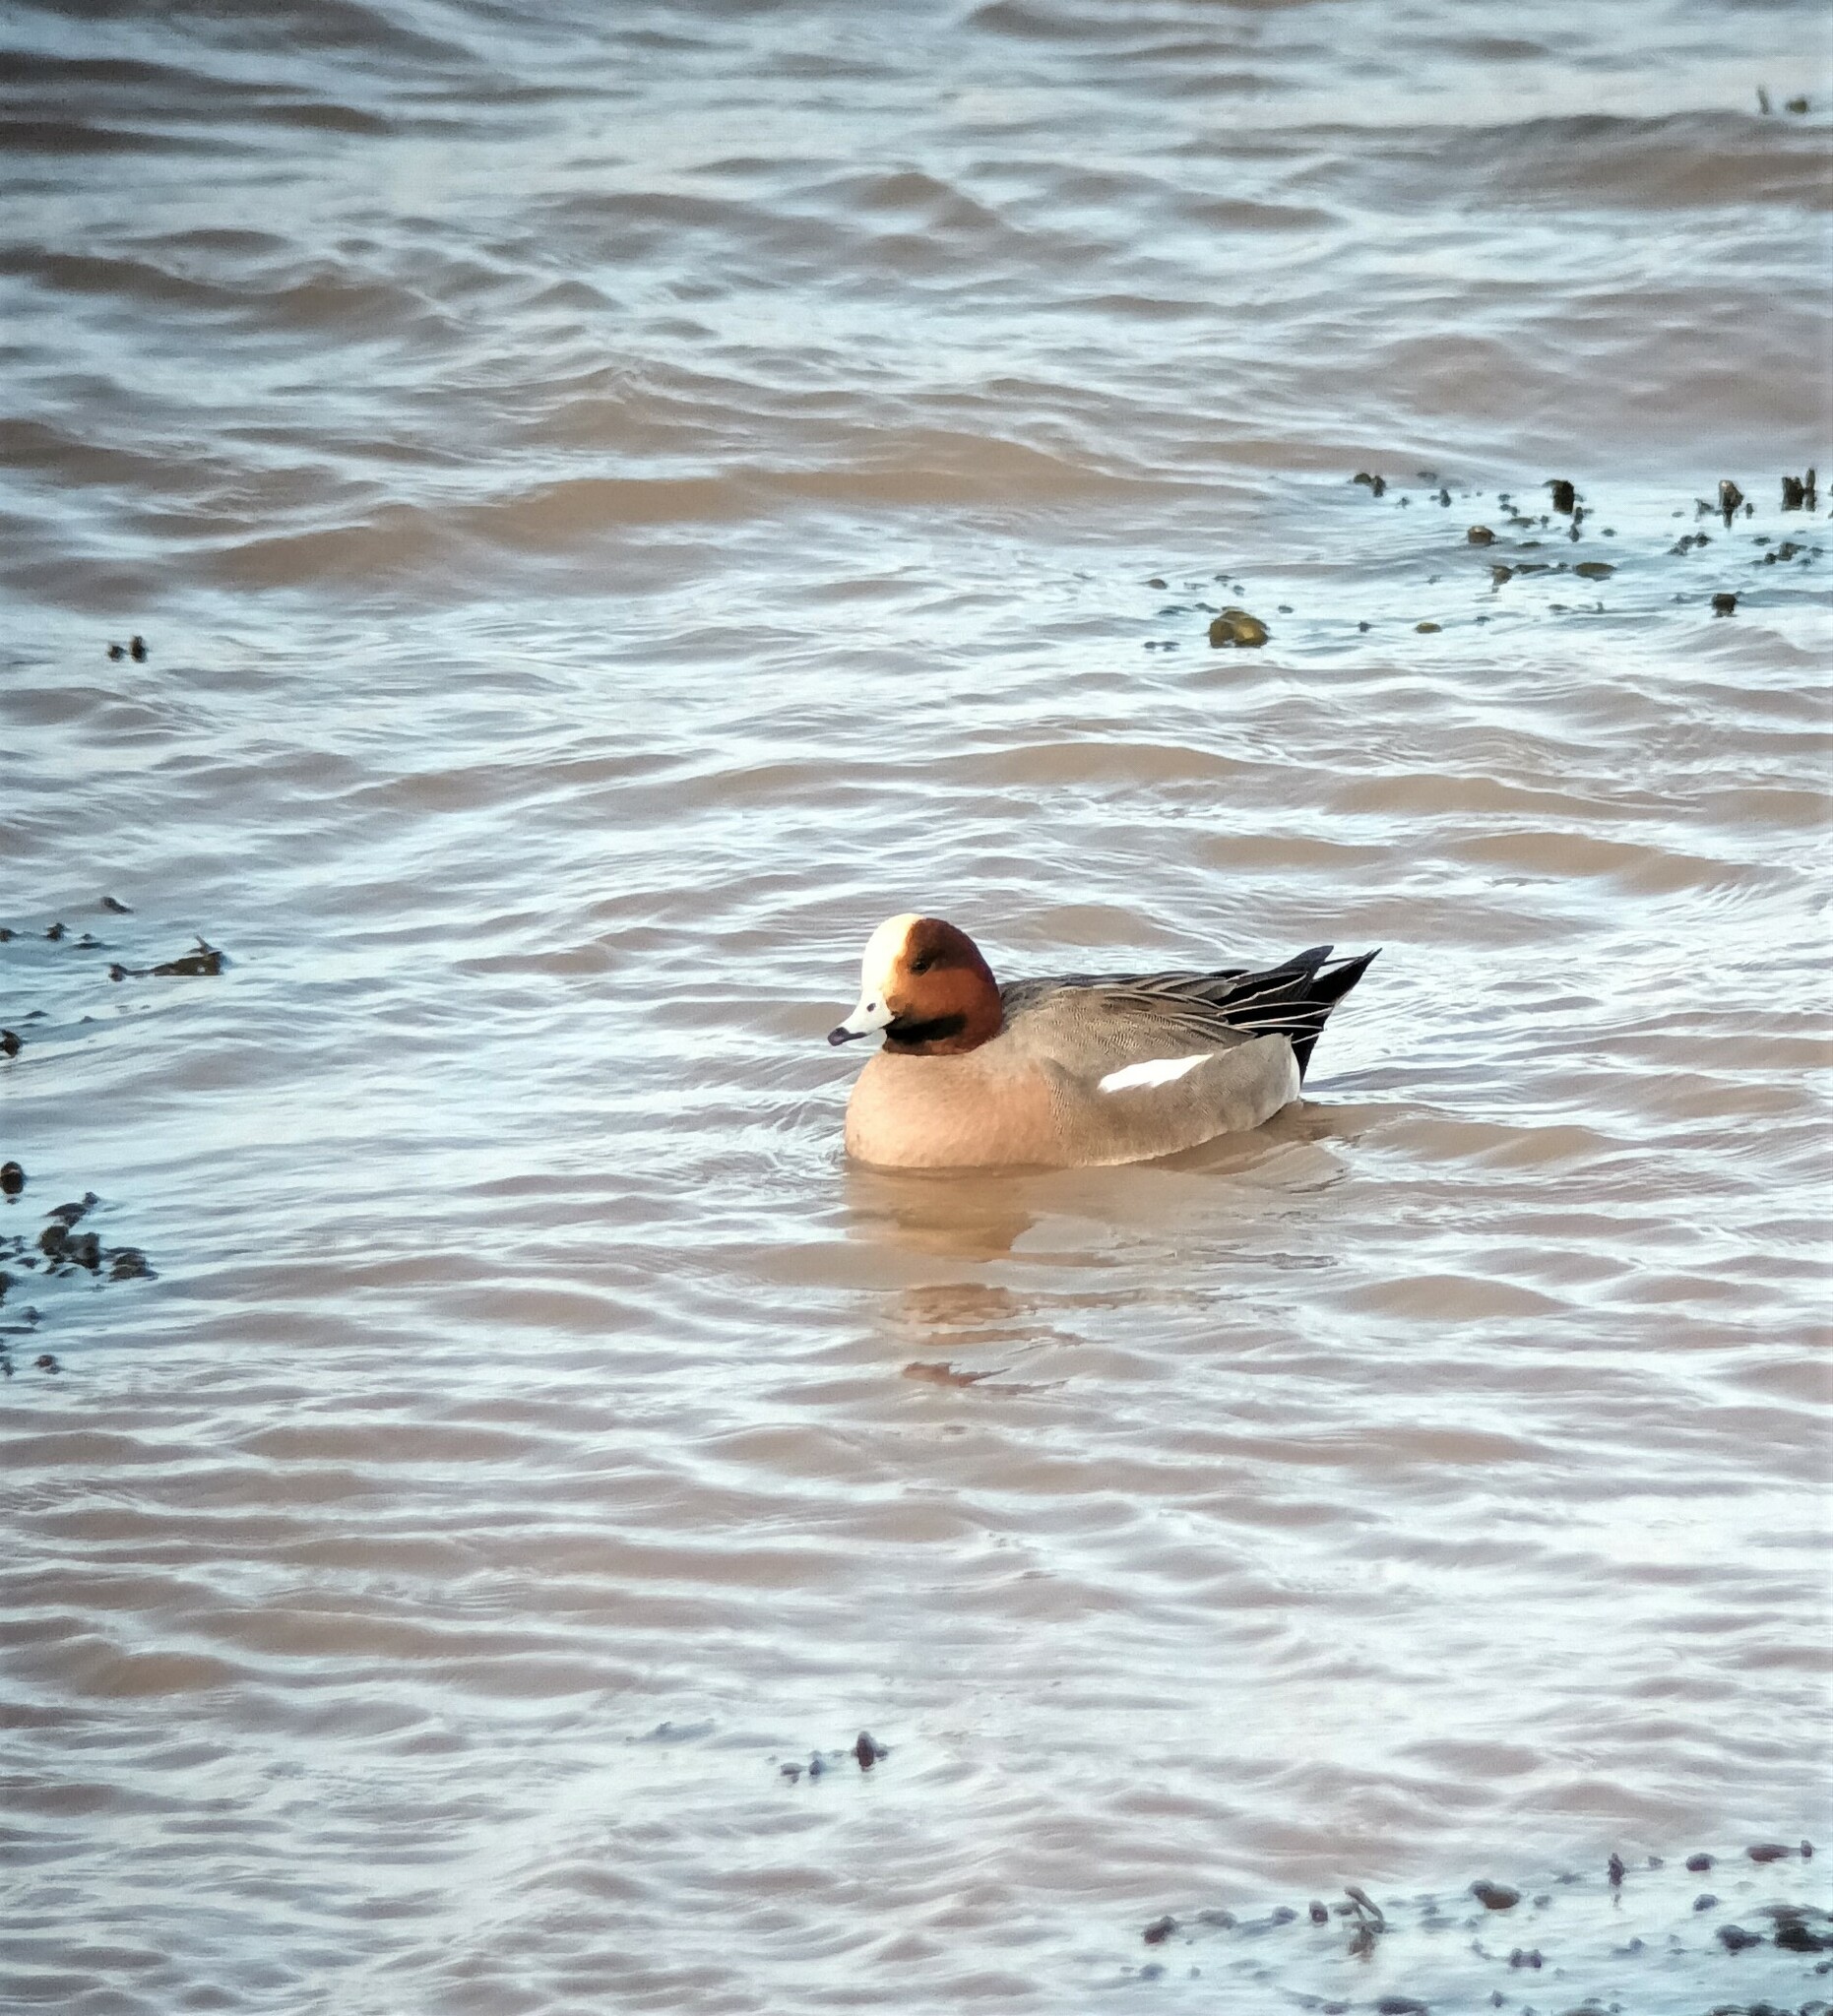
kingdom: Animalia
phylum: Chordata
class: Aves
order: Anseriformes
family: Anatidae
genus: Mareca
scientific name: Mareca penelope
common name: Eurasian wigeon
